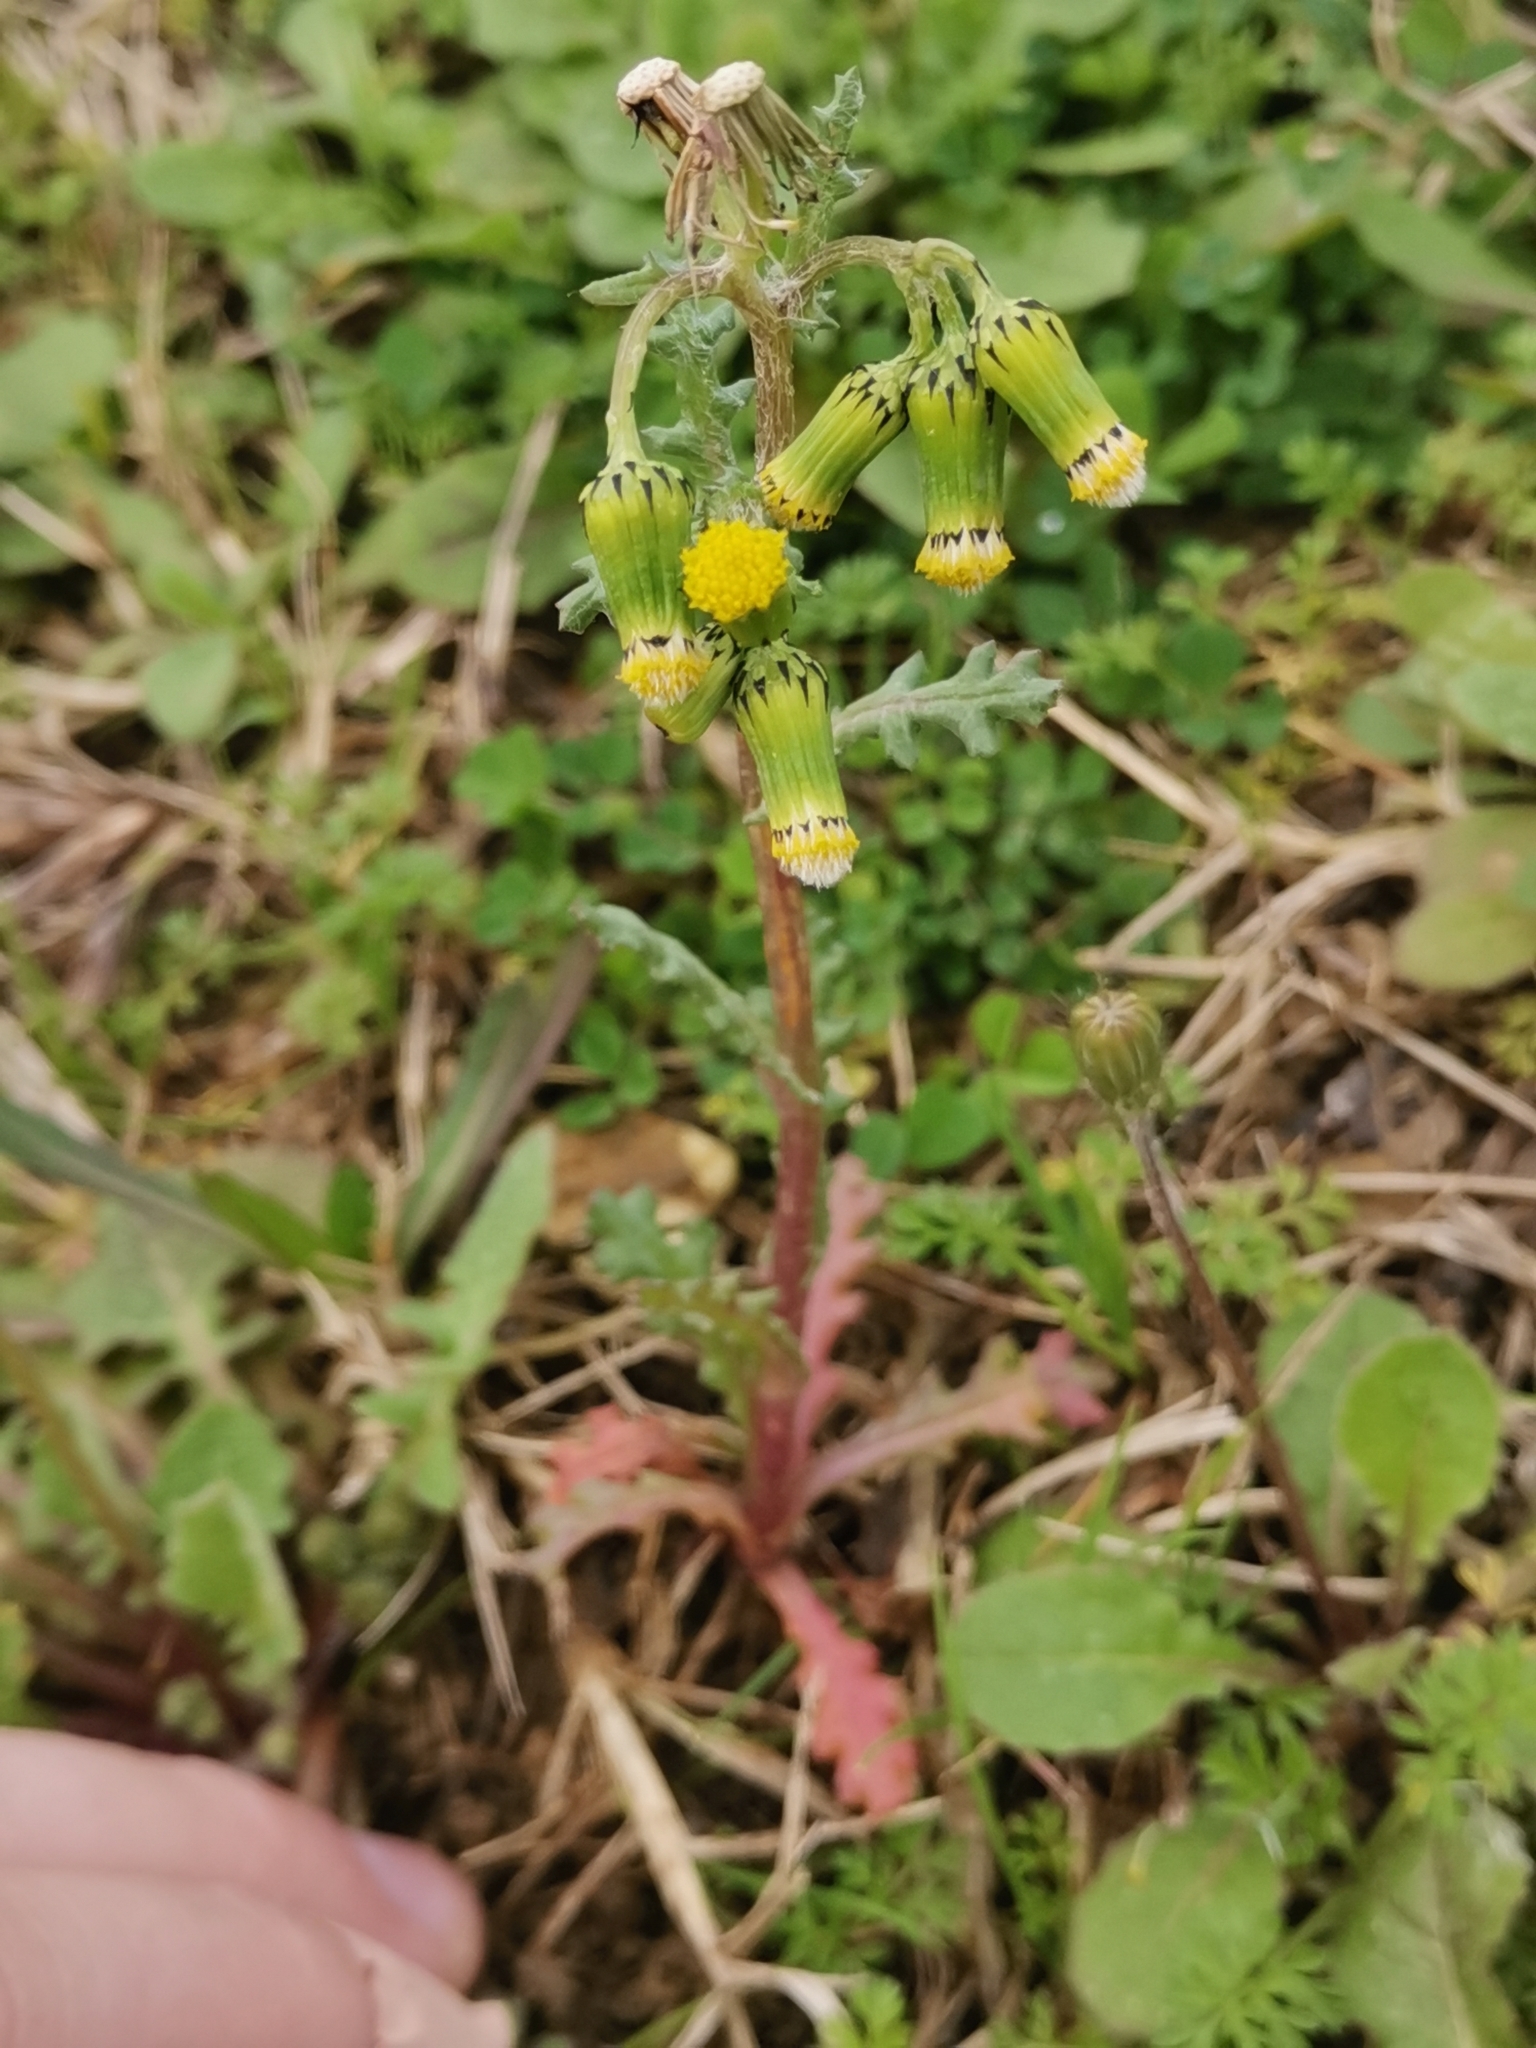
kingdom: Plantae
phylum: Tracheophyta
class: Magnoliopsida
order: Asterales
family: Asteraceae
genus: Senecio
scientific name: Senecio vulgaris
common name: Old-man-in-the-spring
